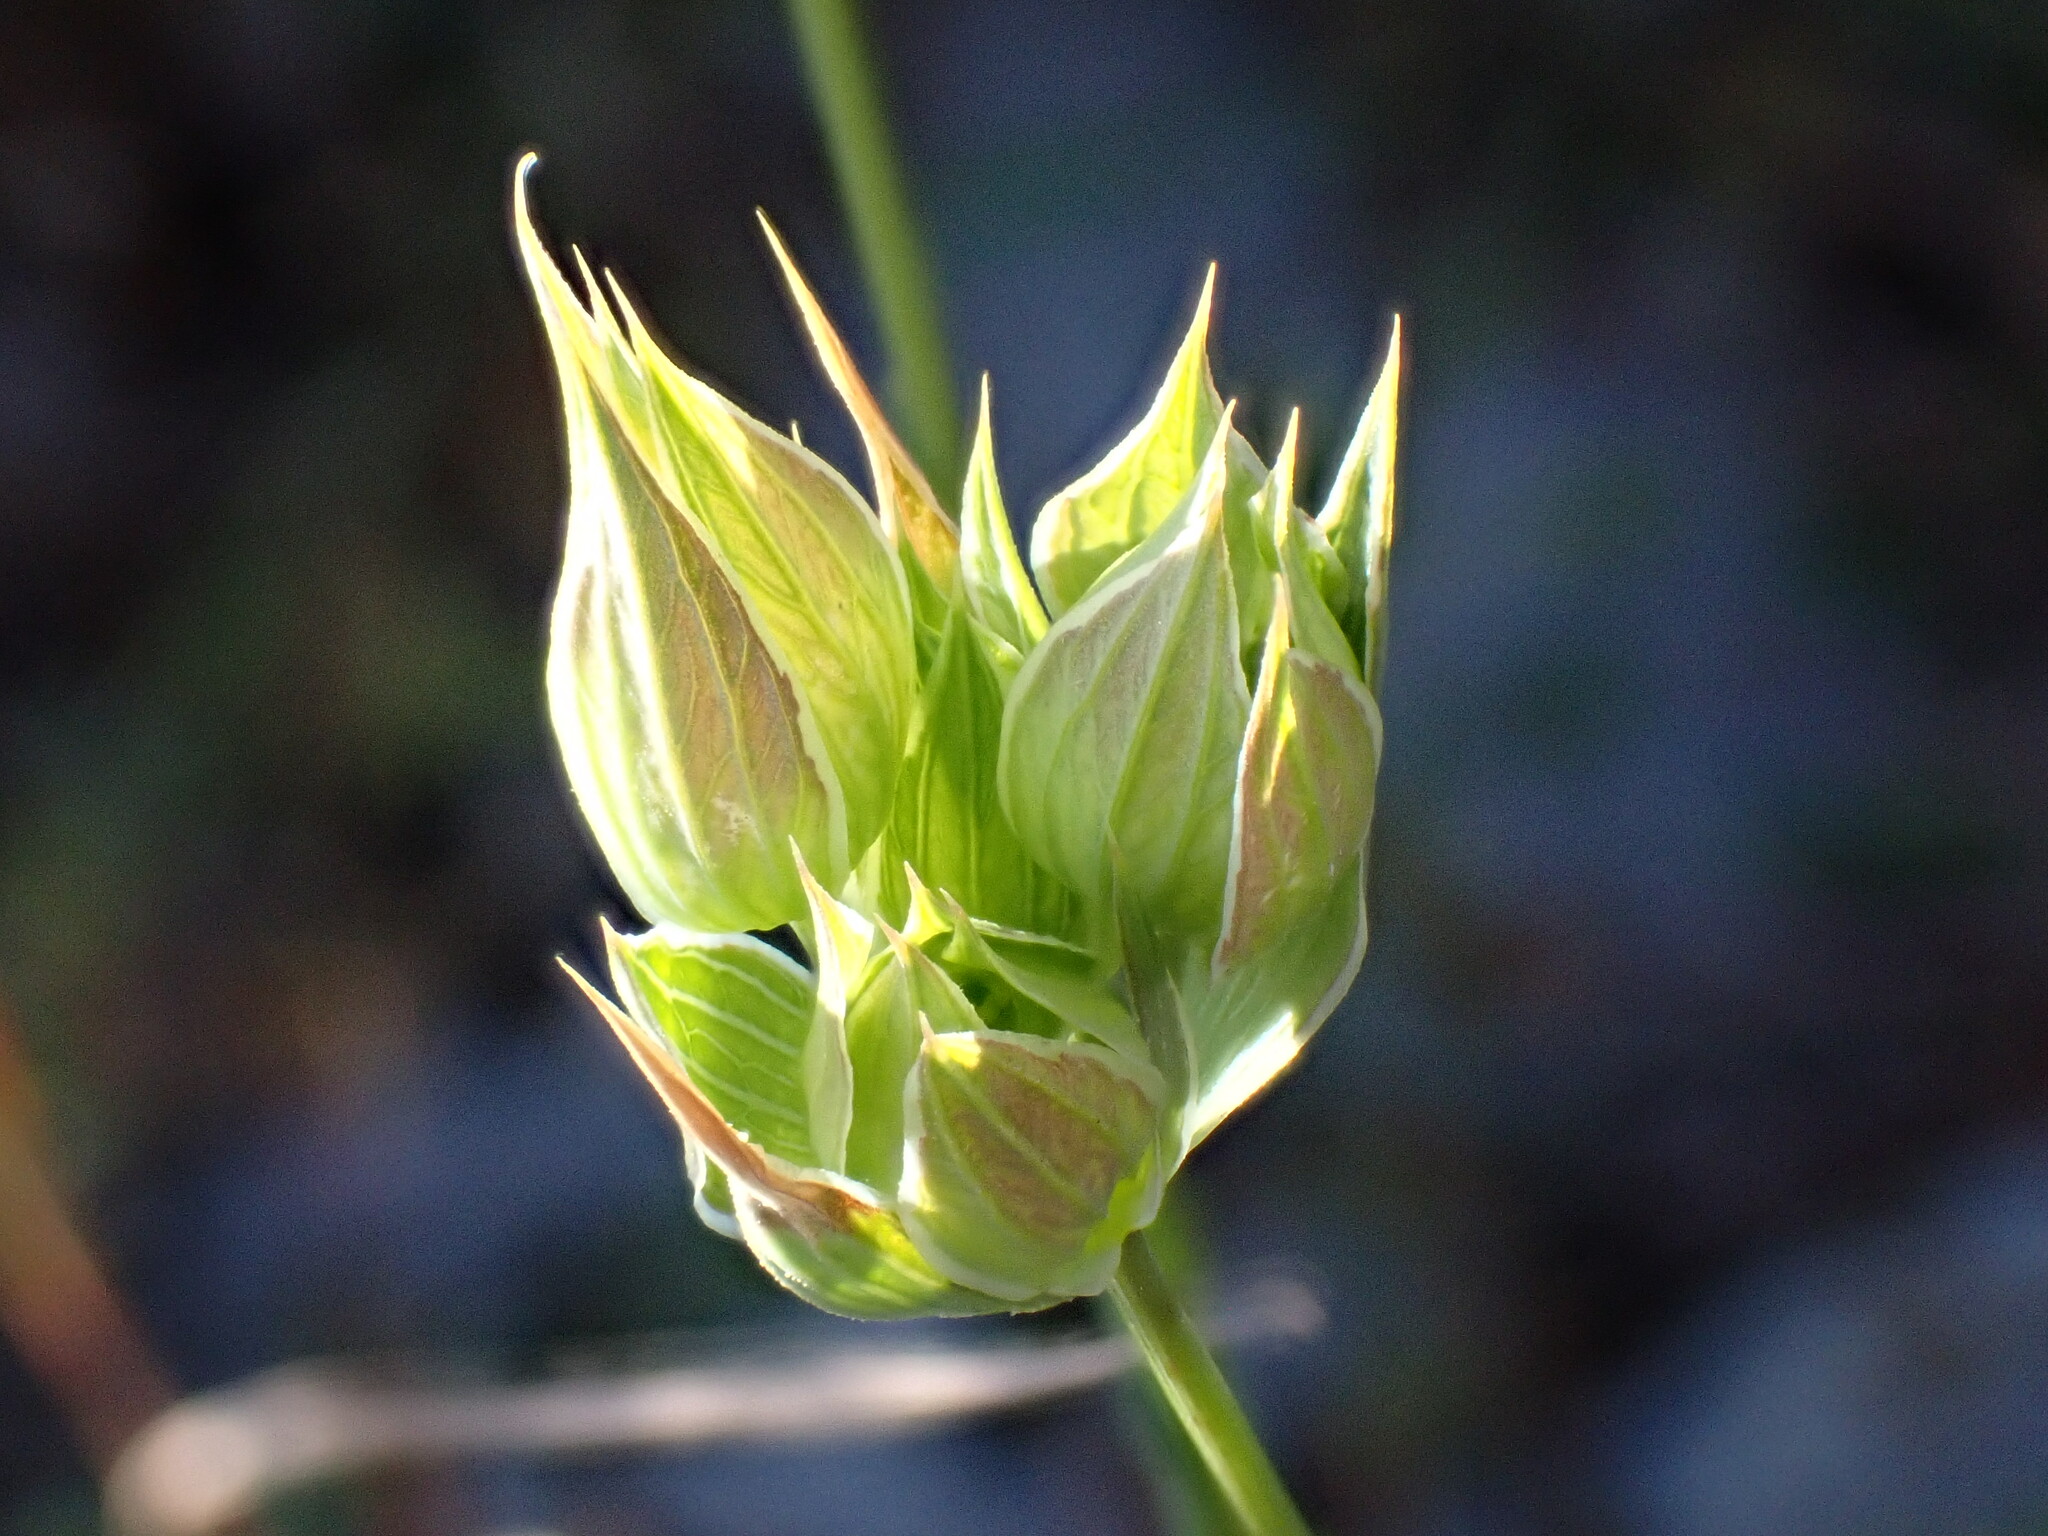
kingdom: Plantae
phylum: Tracheophyta
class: Magnoliopsida
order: Apiales
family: Apiaceae
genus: Bupleurum
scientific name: Bupleurum baldense
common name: Small hare's-ear
